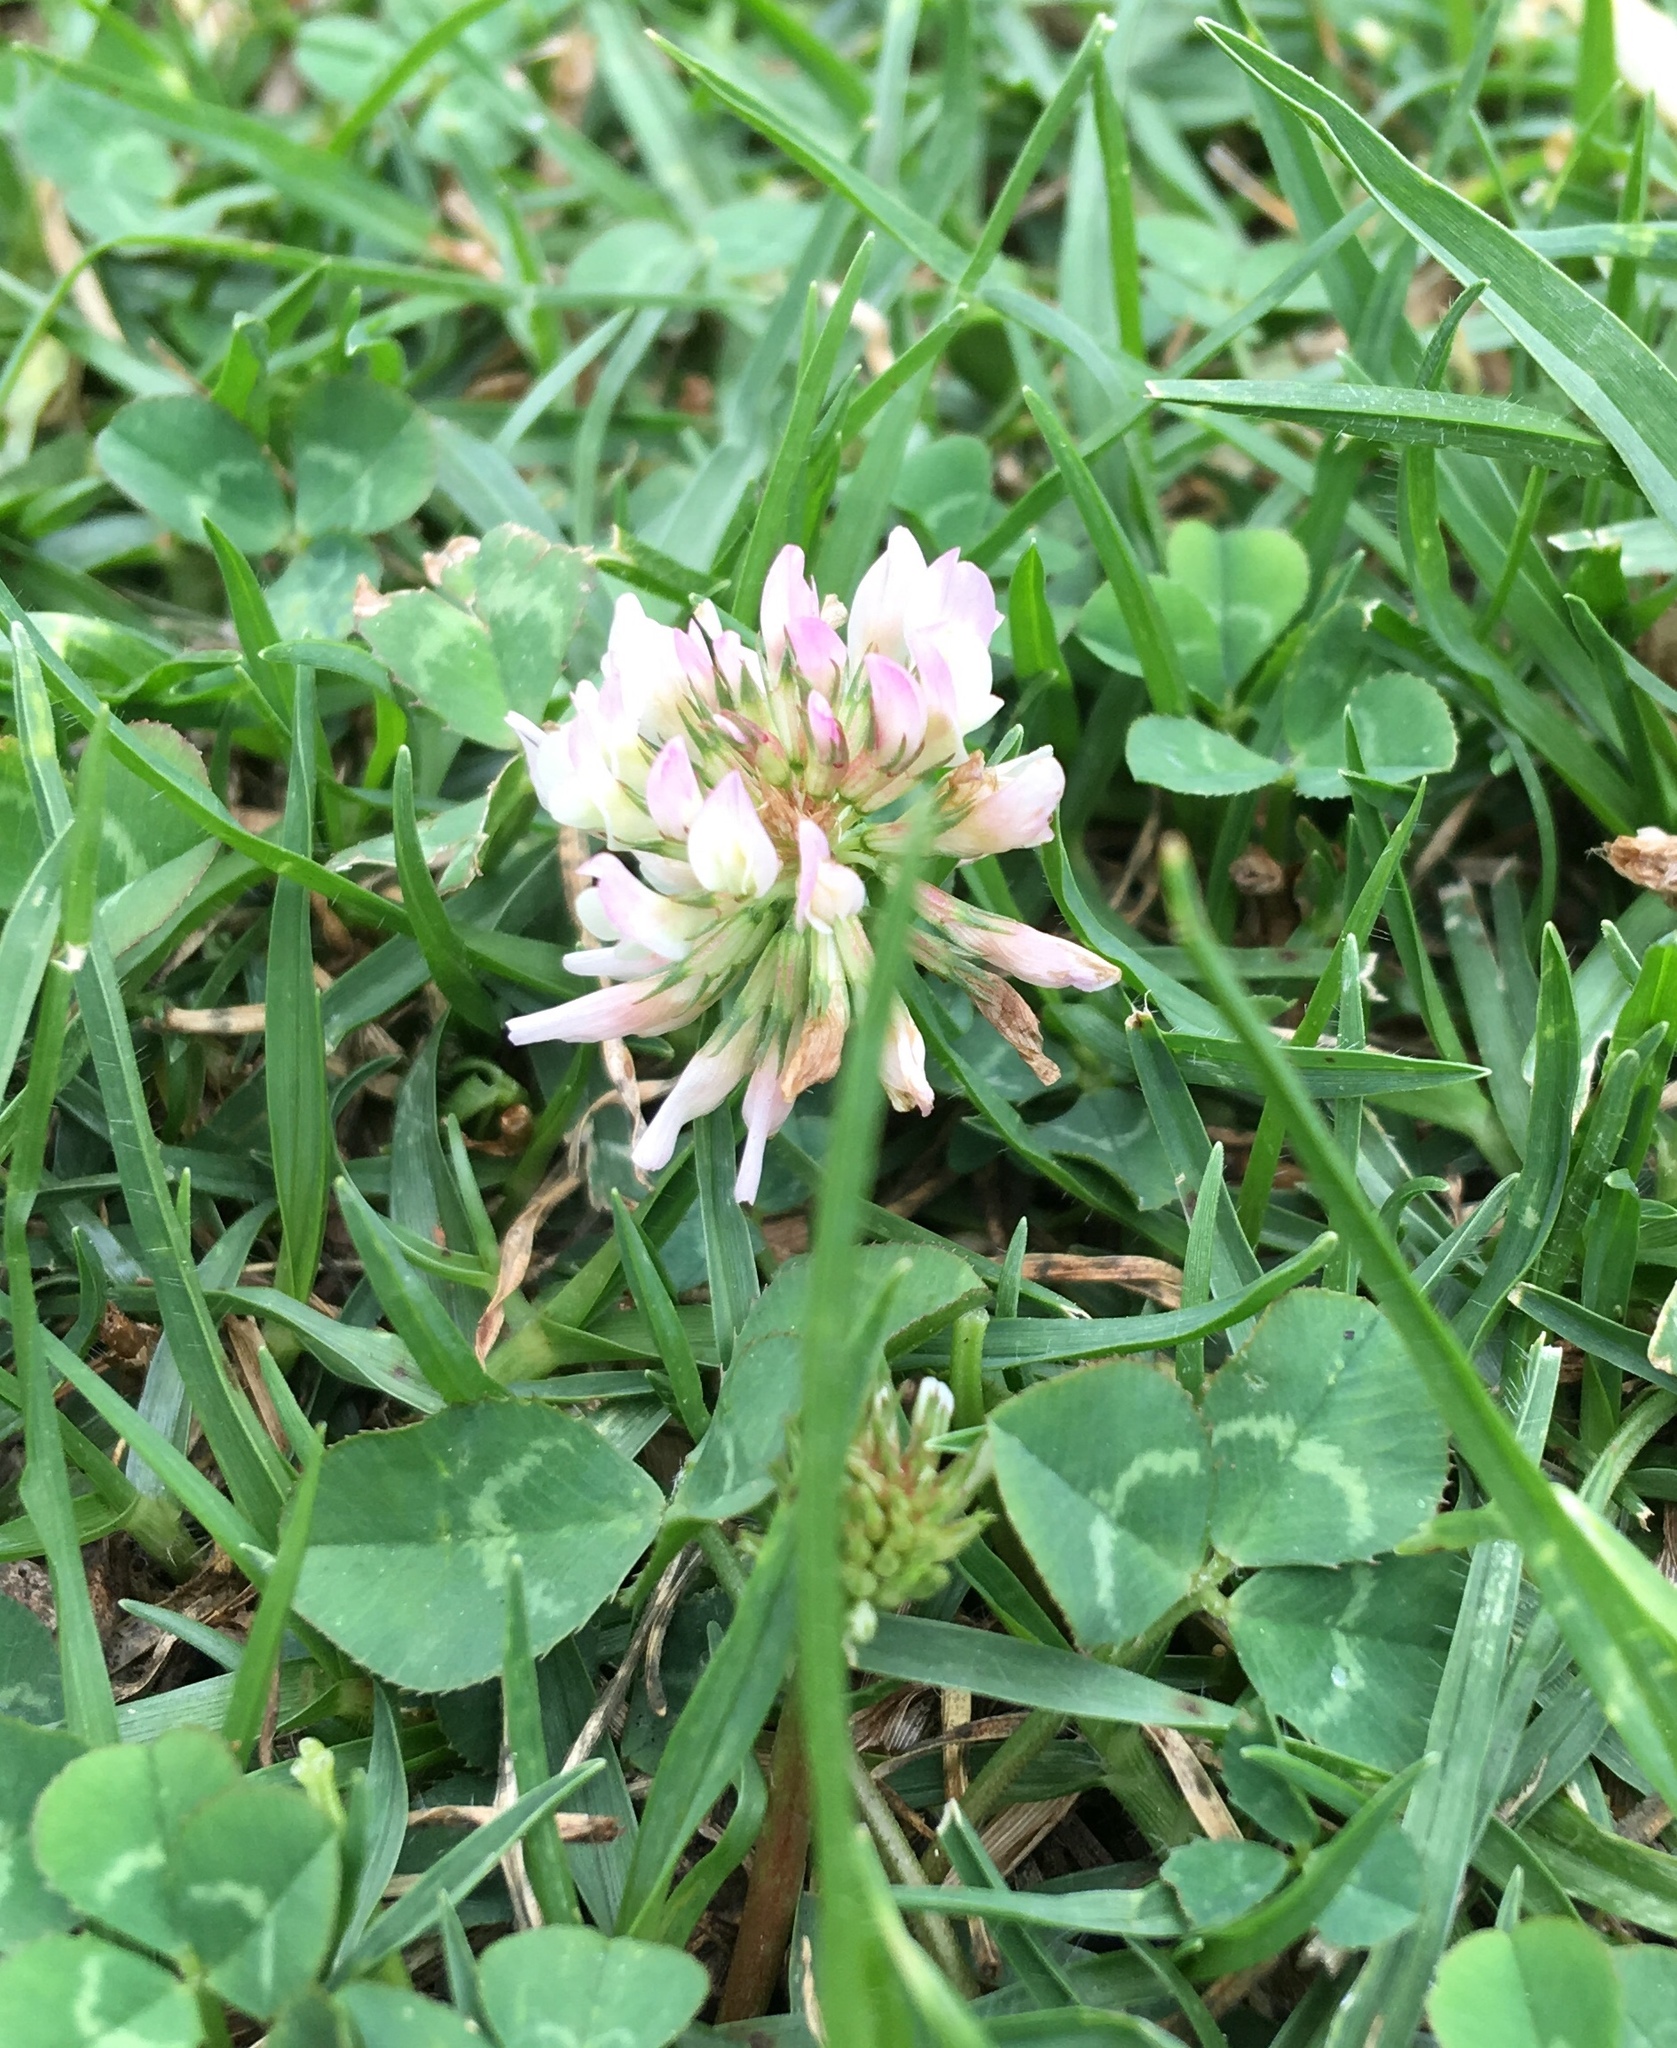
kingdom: Plantae
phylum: Tracheophyta
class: Magnoliopsida
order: Fabales
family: Fabaceae
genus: Trifolium
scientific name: Trifolium repens
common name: White clover
